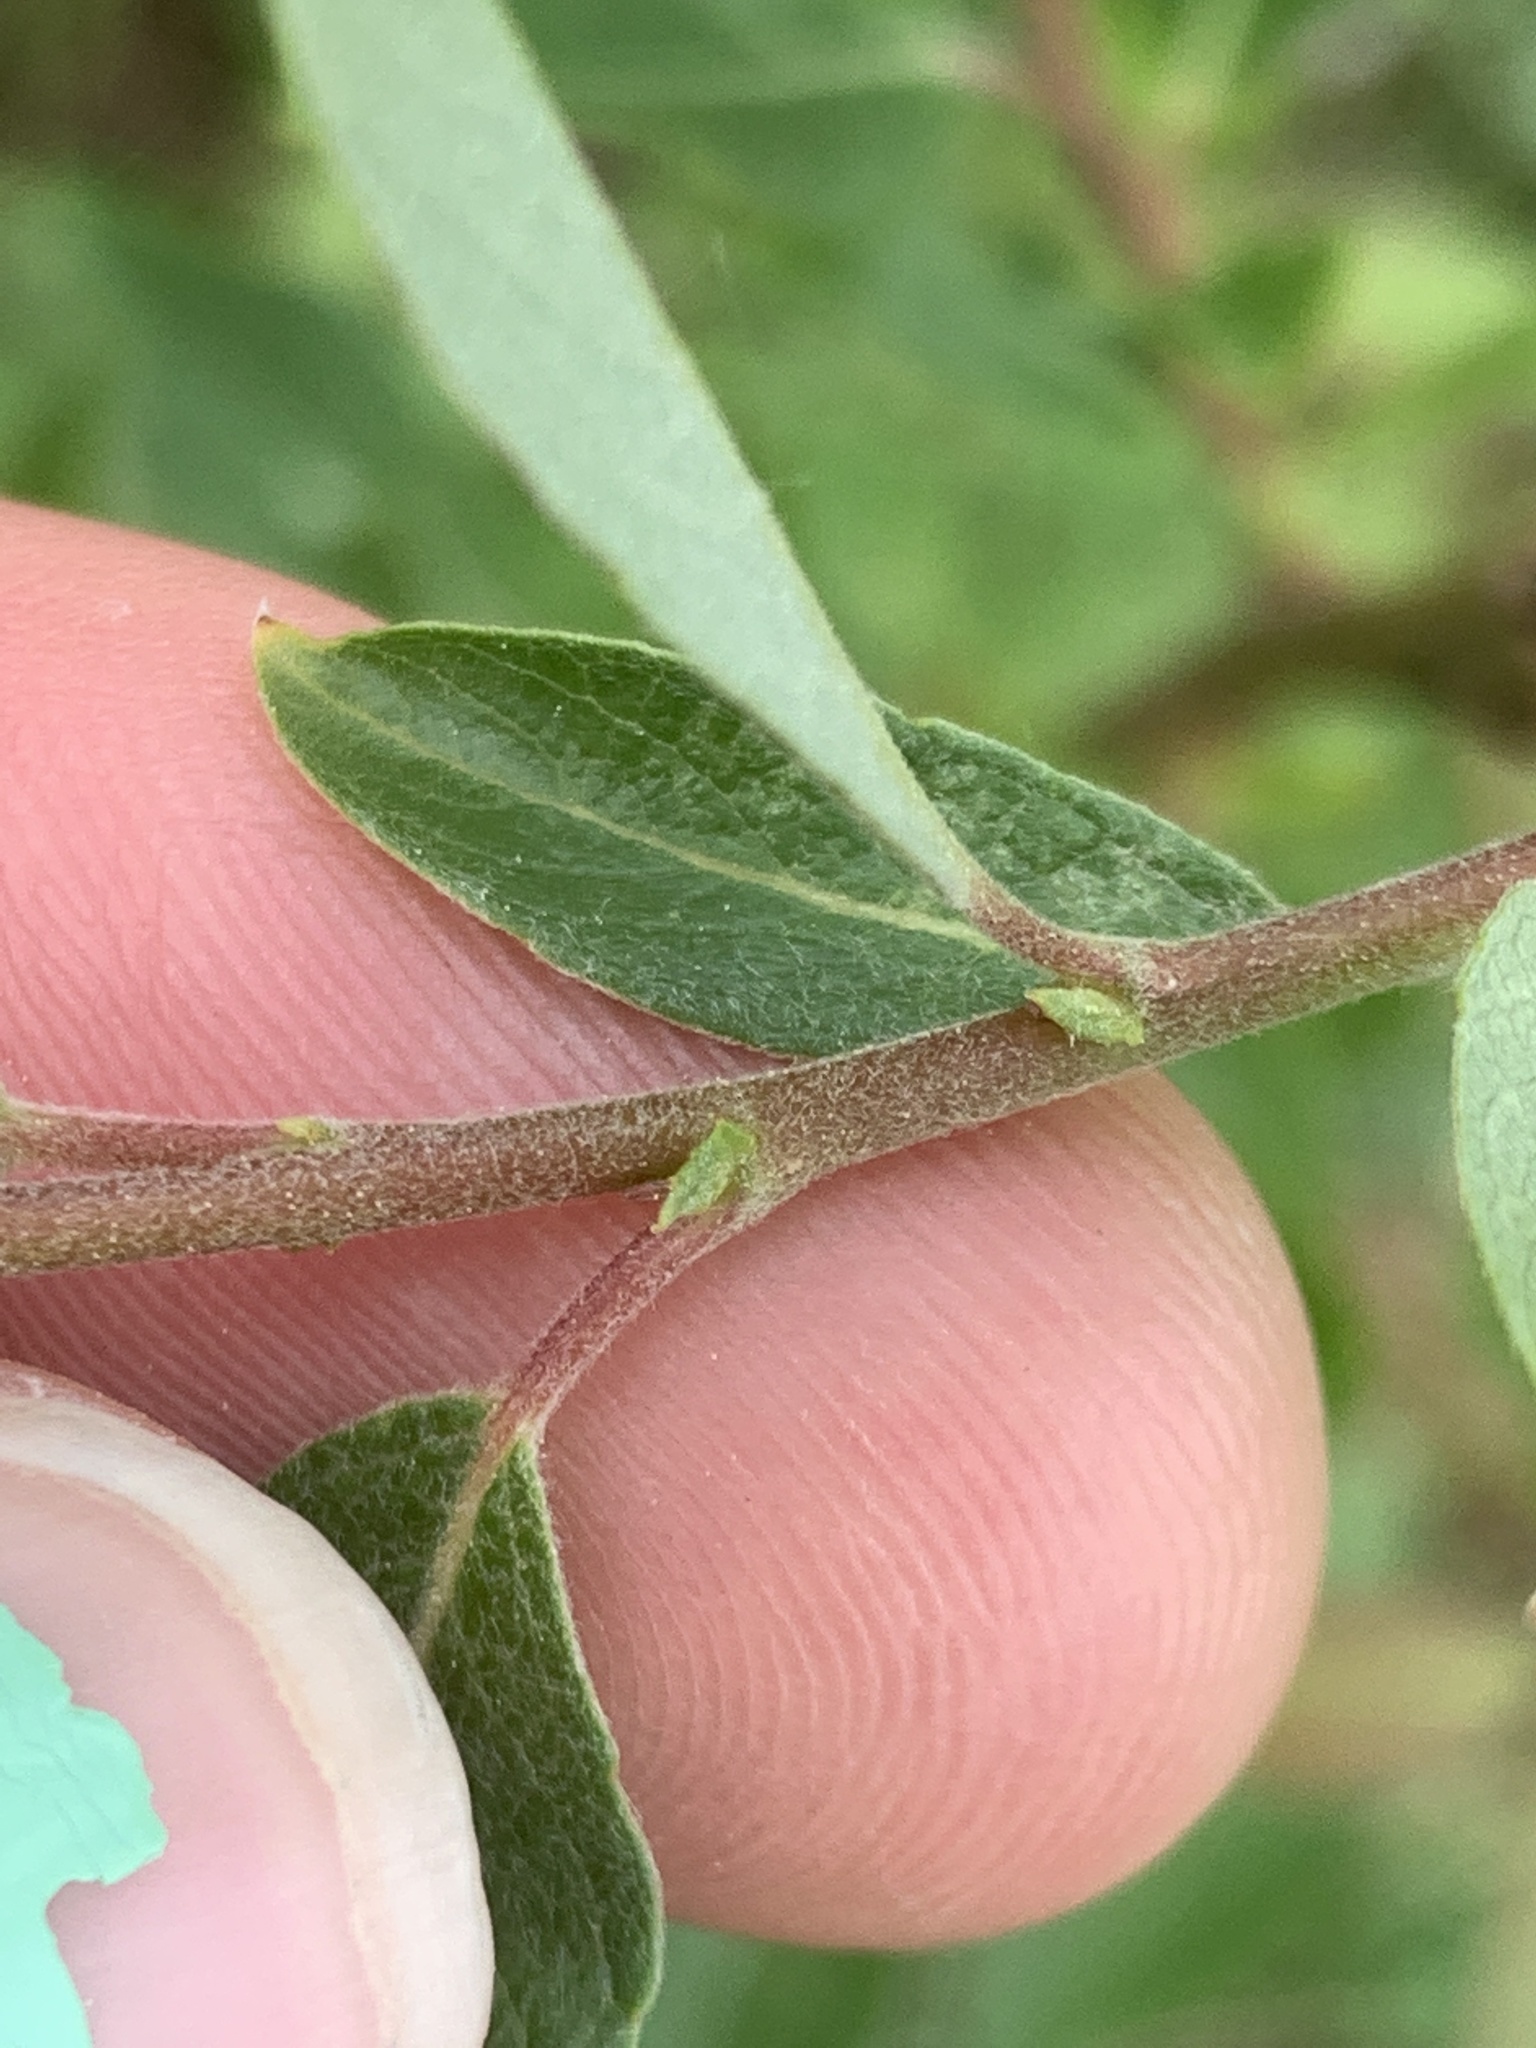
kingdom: Plantae
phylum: Tracheophyta
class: Magnoliopsida
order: Malpighiales
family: Salicaceae
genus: Salix
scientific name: Salix bebbiana
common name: Bebb's willow
